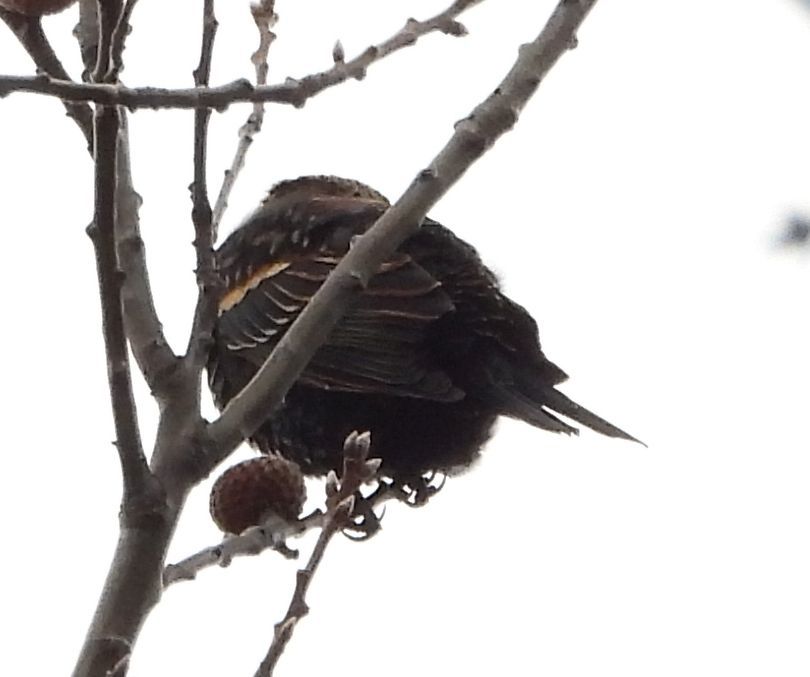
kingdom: Animalia
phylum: Chordata
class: Aves
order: Passeriformes
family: Icteridae
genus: Agelaius
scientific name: Agelaius phoeniceus
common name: Red-winged blackbird
